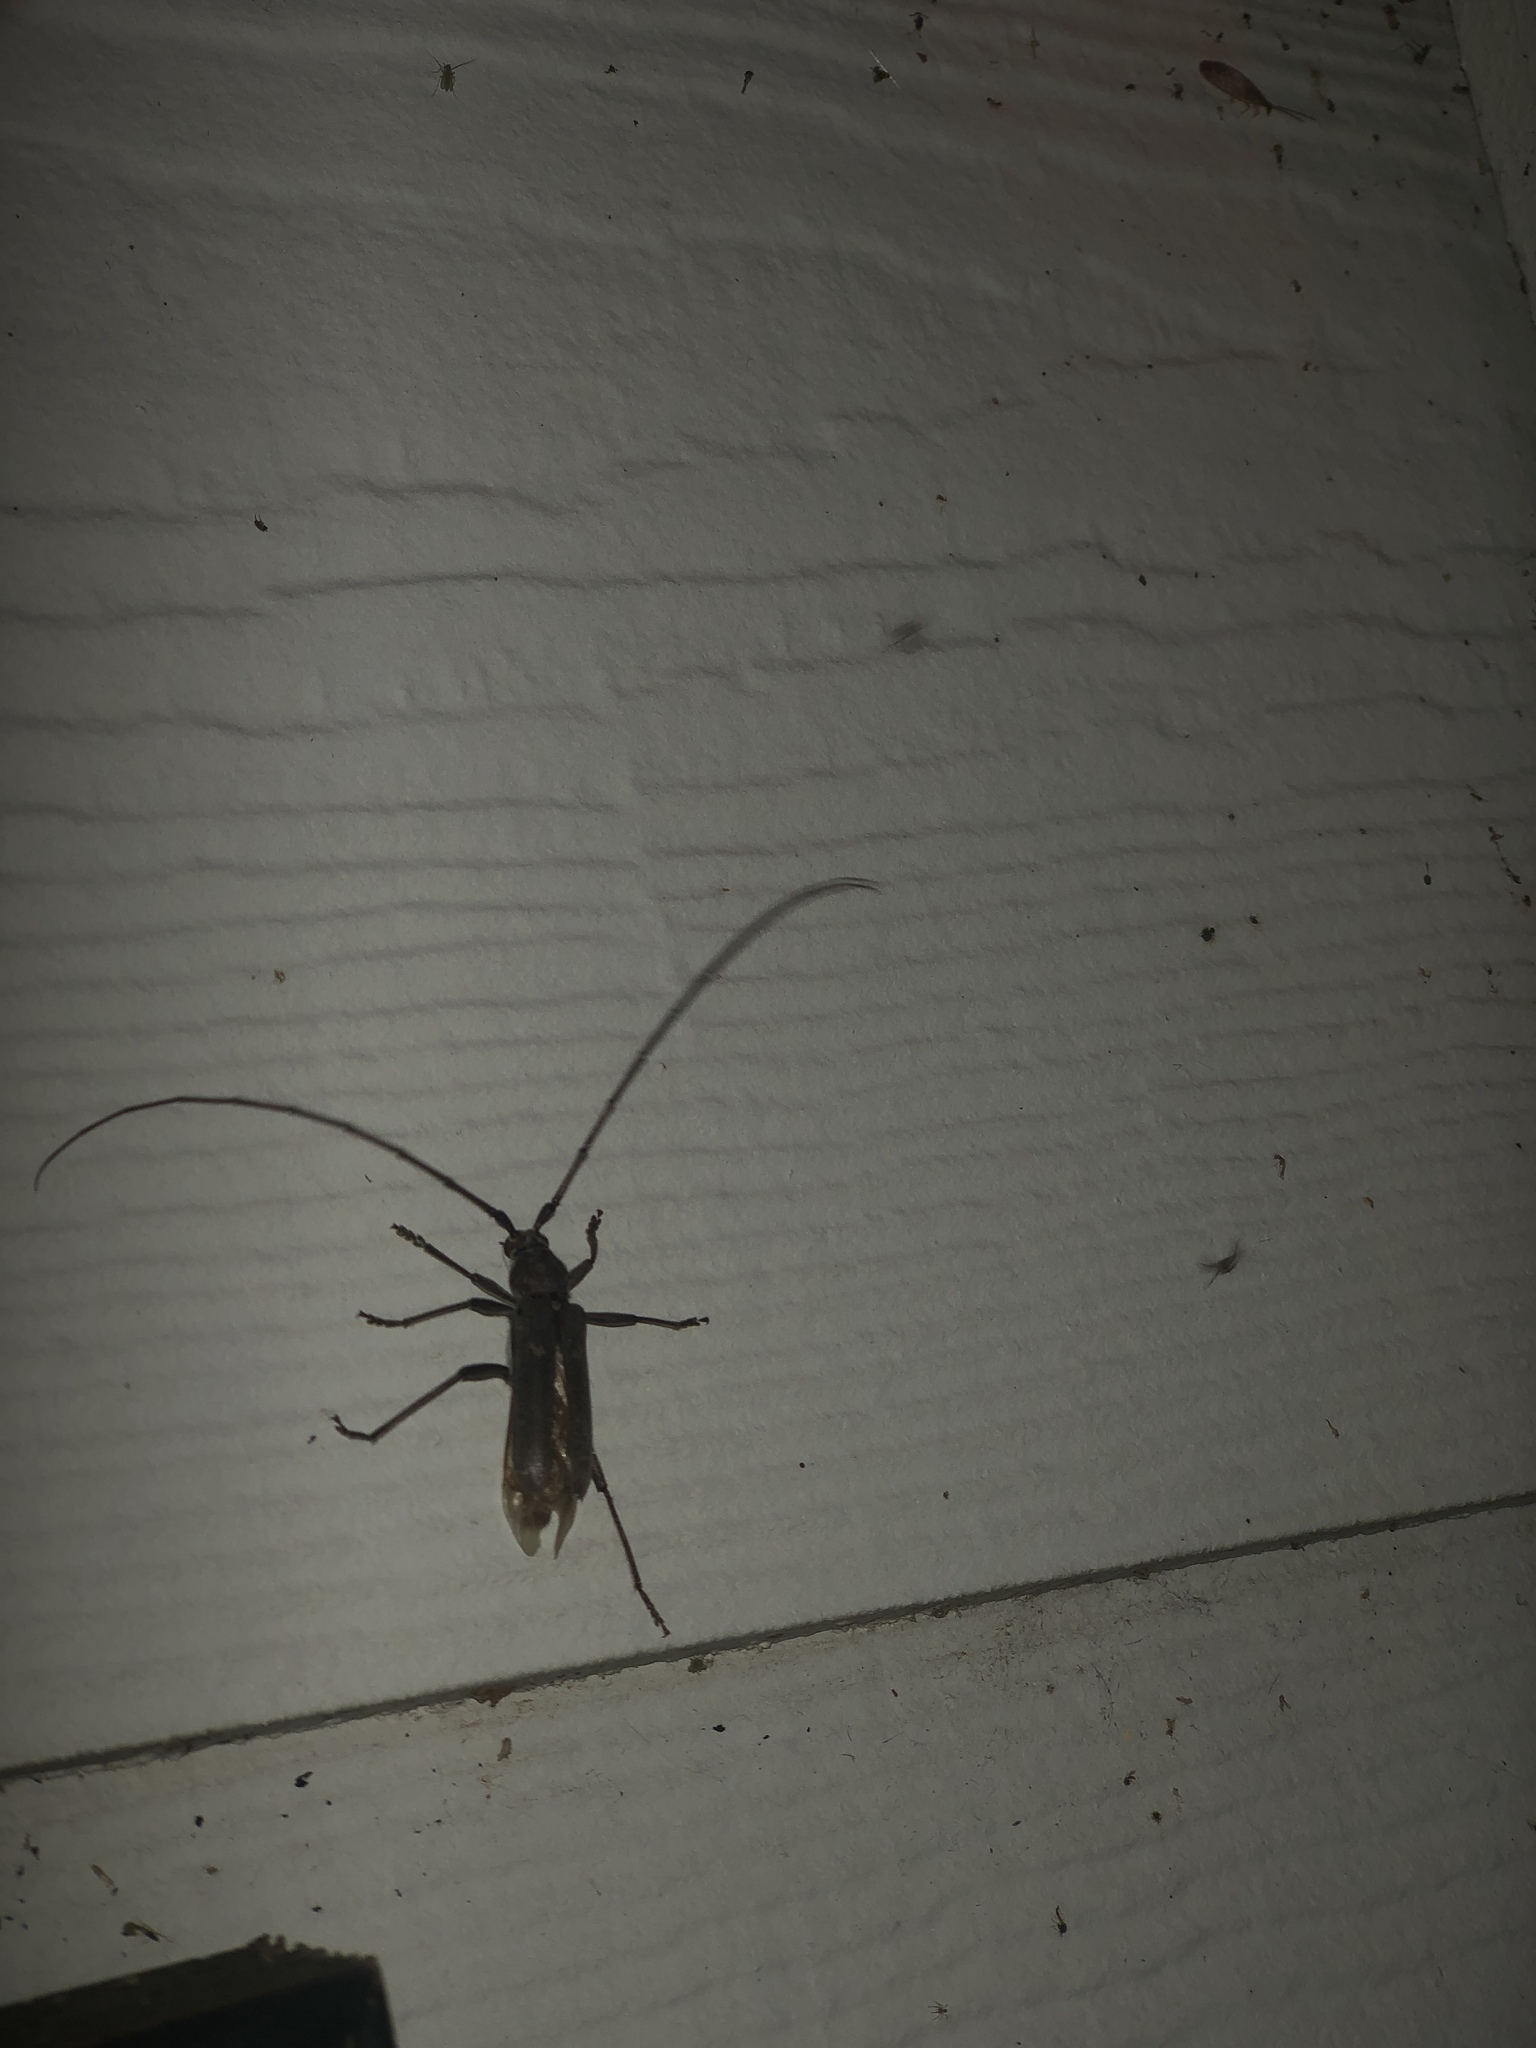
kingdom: Animalia
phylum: Arthropoda
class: Insecta
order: Coleoptera
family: Cerambycidae
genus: Knulliana
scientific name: Knulliana cincta
